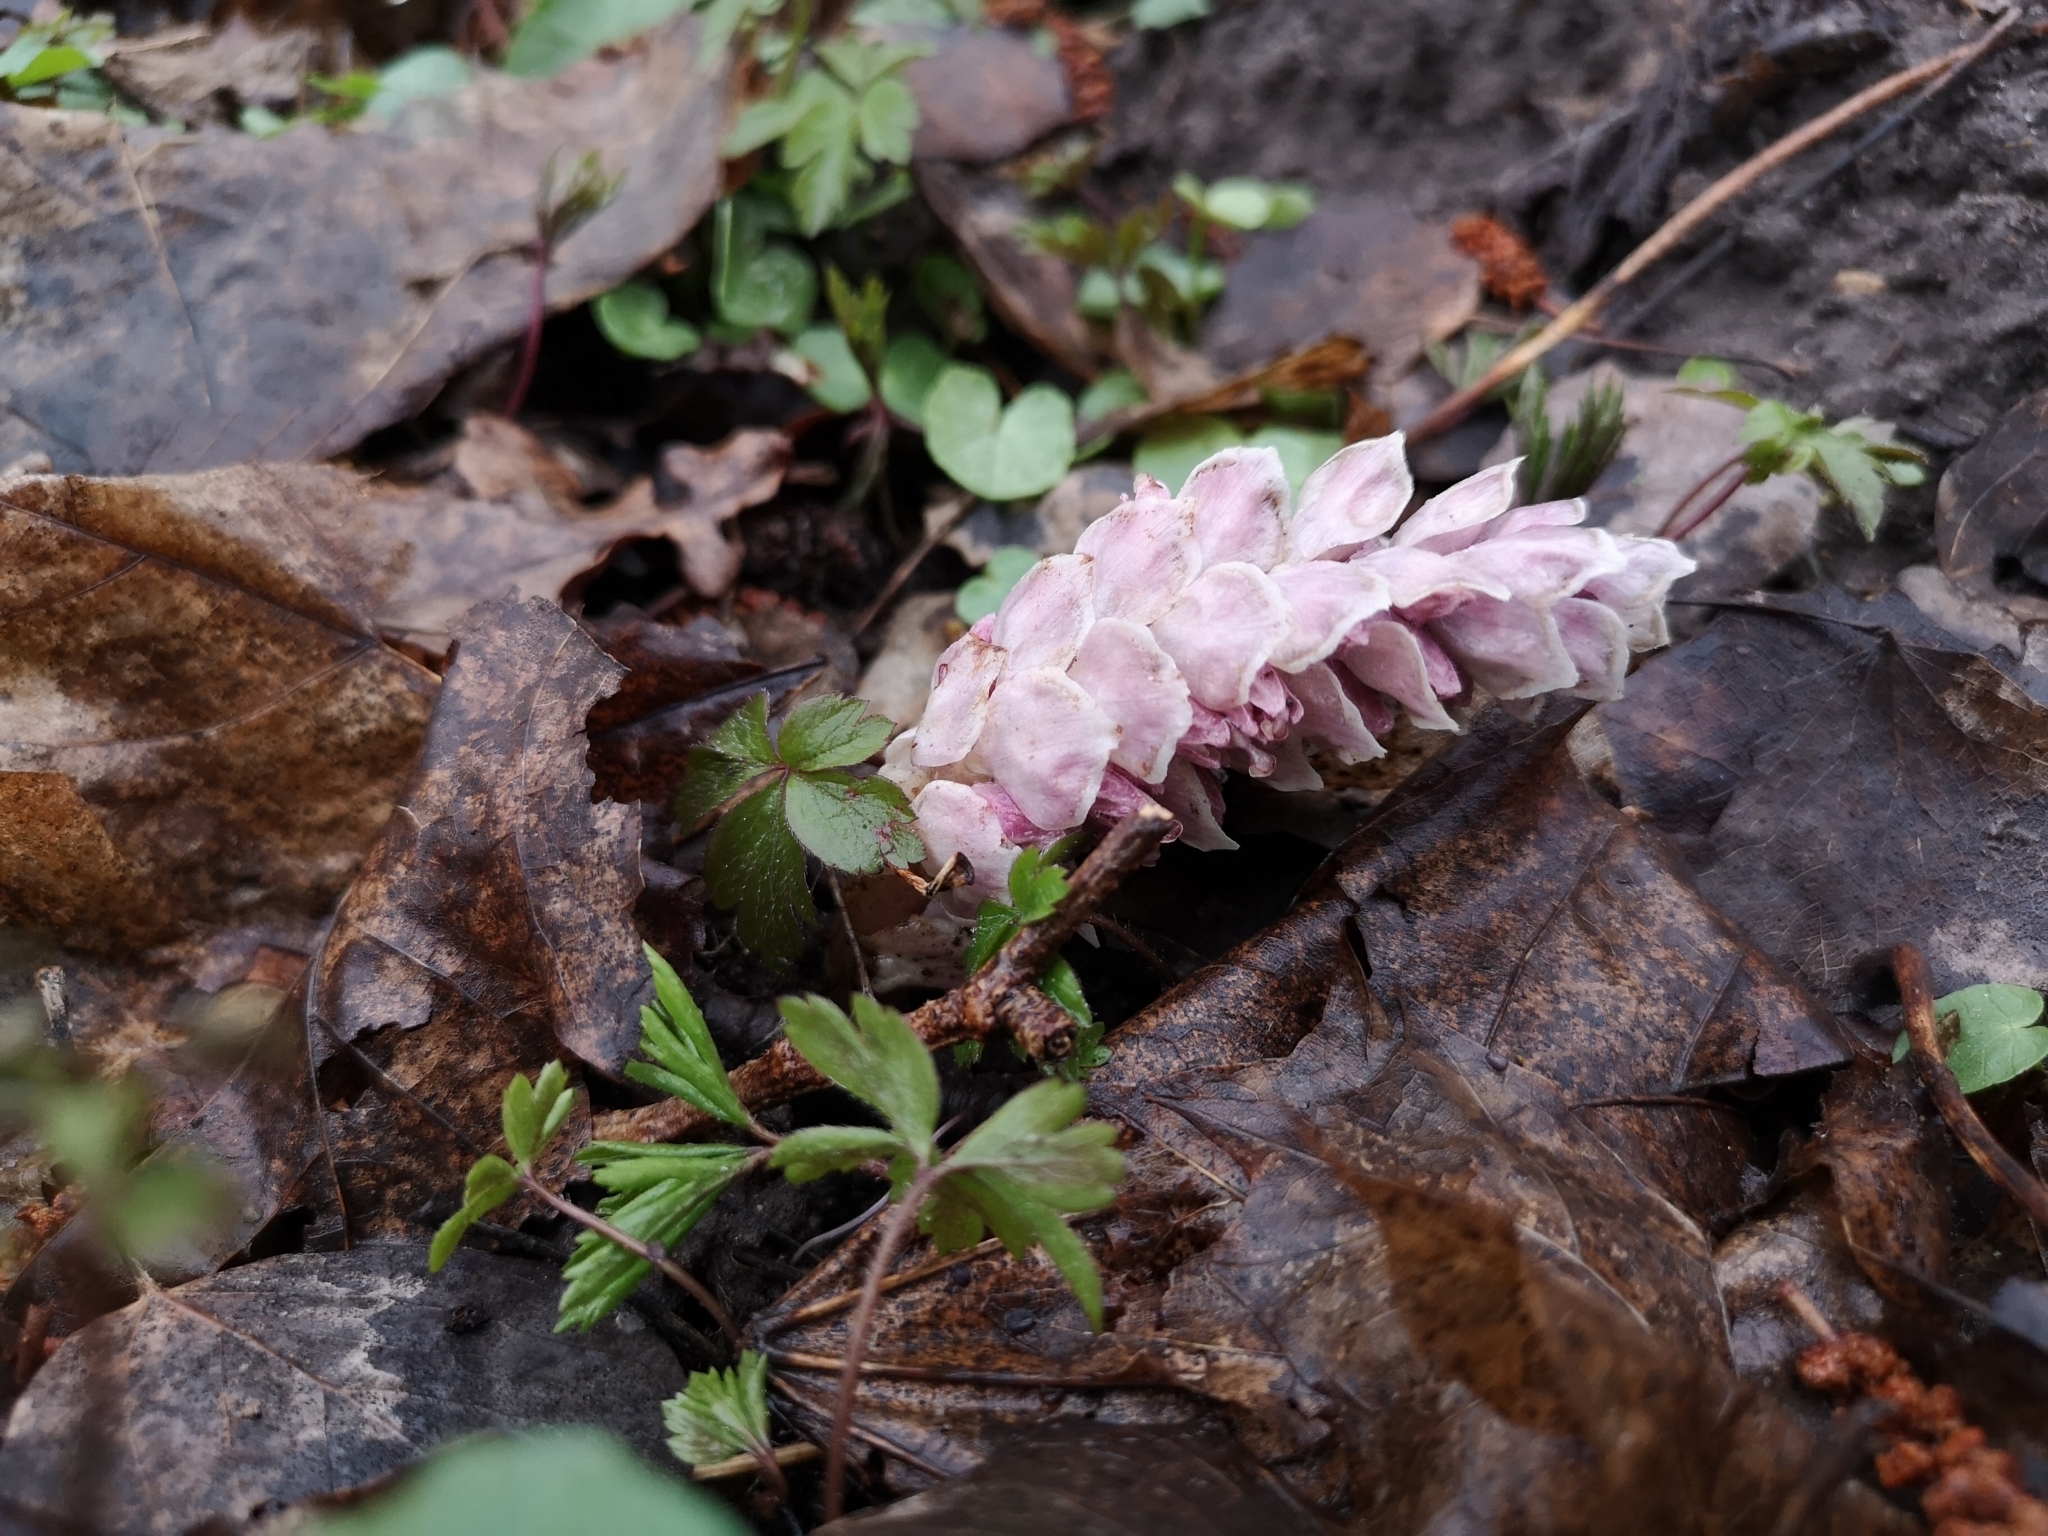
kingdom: Plantae
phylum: Tracheophyta
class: Magnoliopsida
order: Lamiales
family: Orobanchaceae
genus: Lathraea
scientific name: Lathraea squamaria
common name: Toothwort
